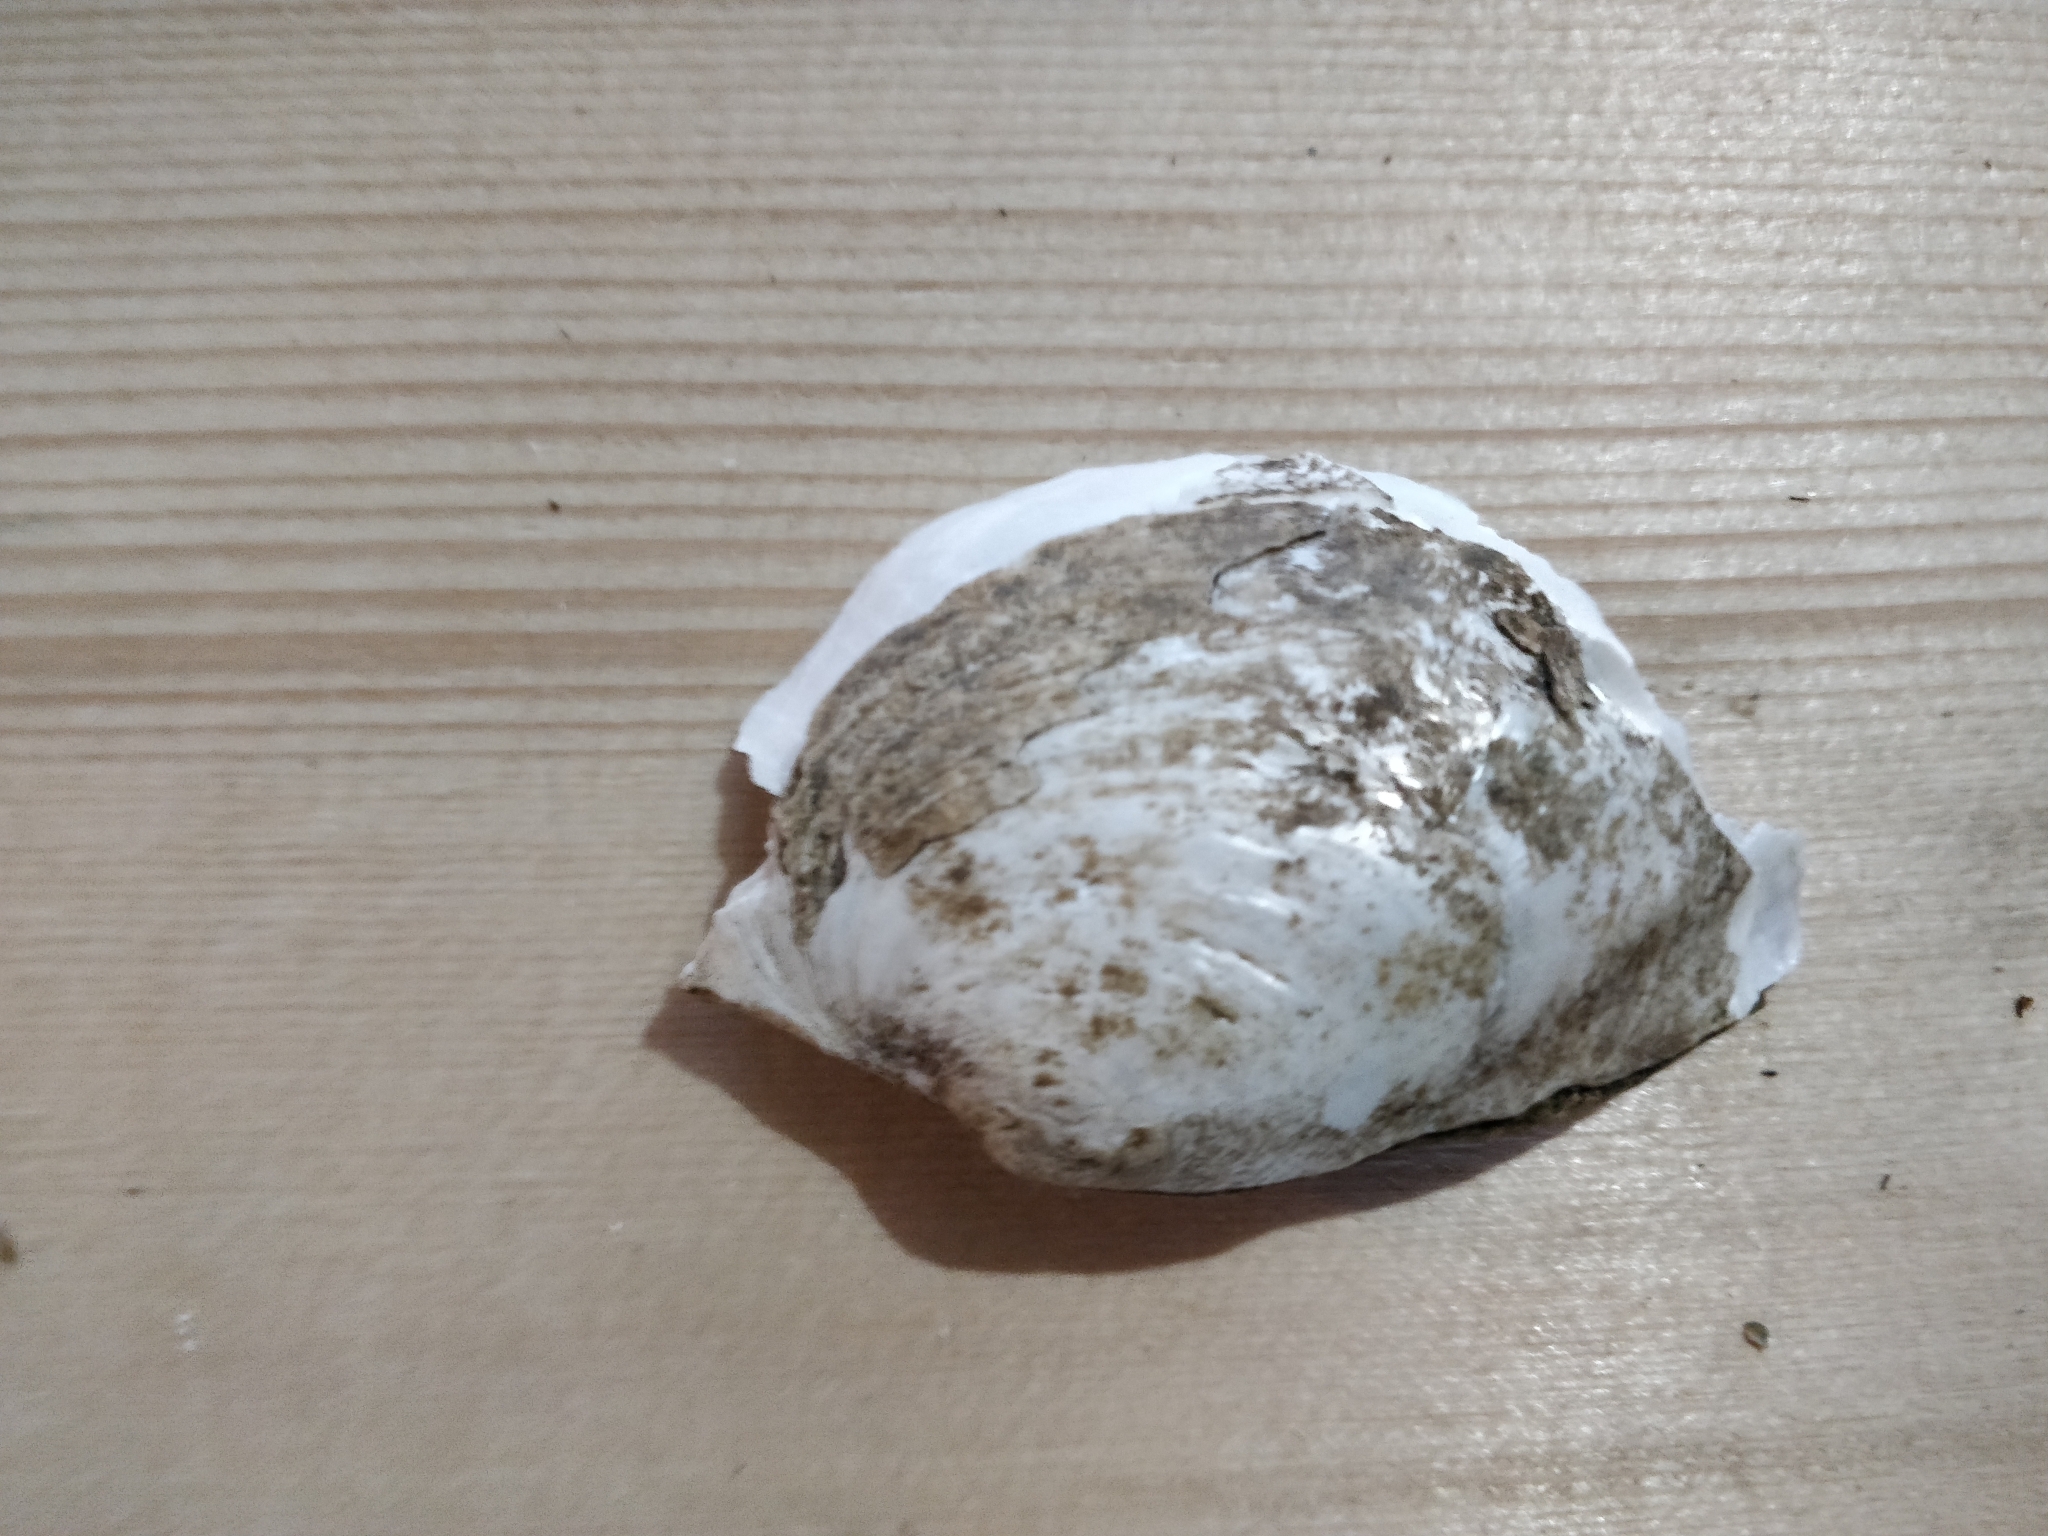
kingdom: Animalia
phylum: Mollusca
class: Bivalvia
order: Unionida
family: Unionidae
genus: Lasmigona
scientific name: Lasmigona complanata
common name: White heelsplitter
